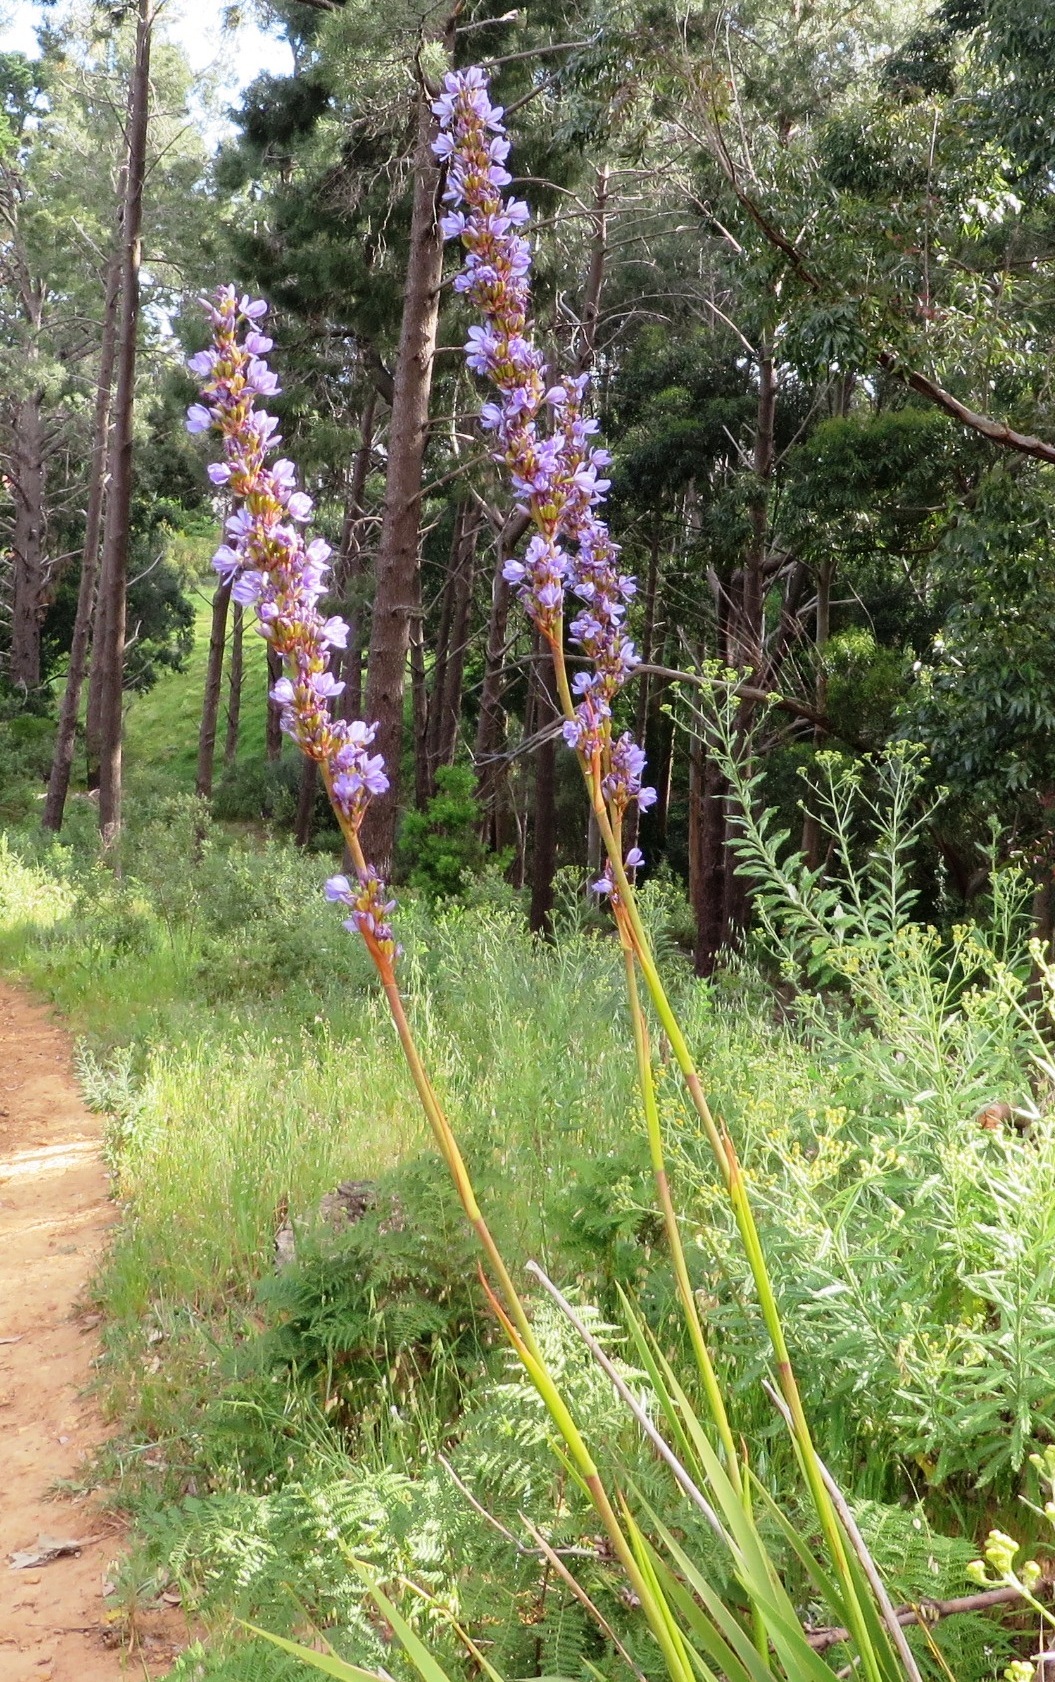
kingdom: Plantae
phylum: Tracheophyta
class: Liliopsida
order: Asparagales
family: Iridaceae
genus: Aristea
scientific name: Aristea capitata
